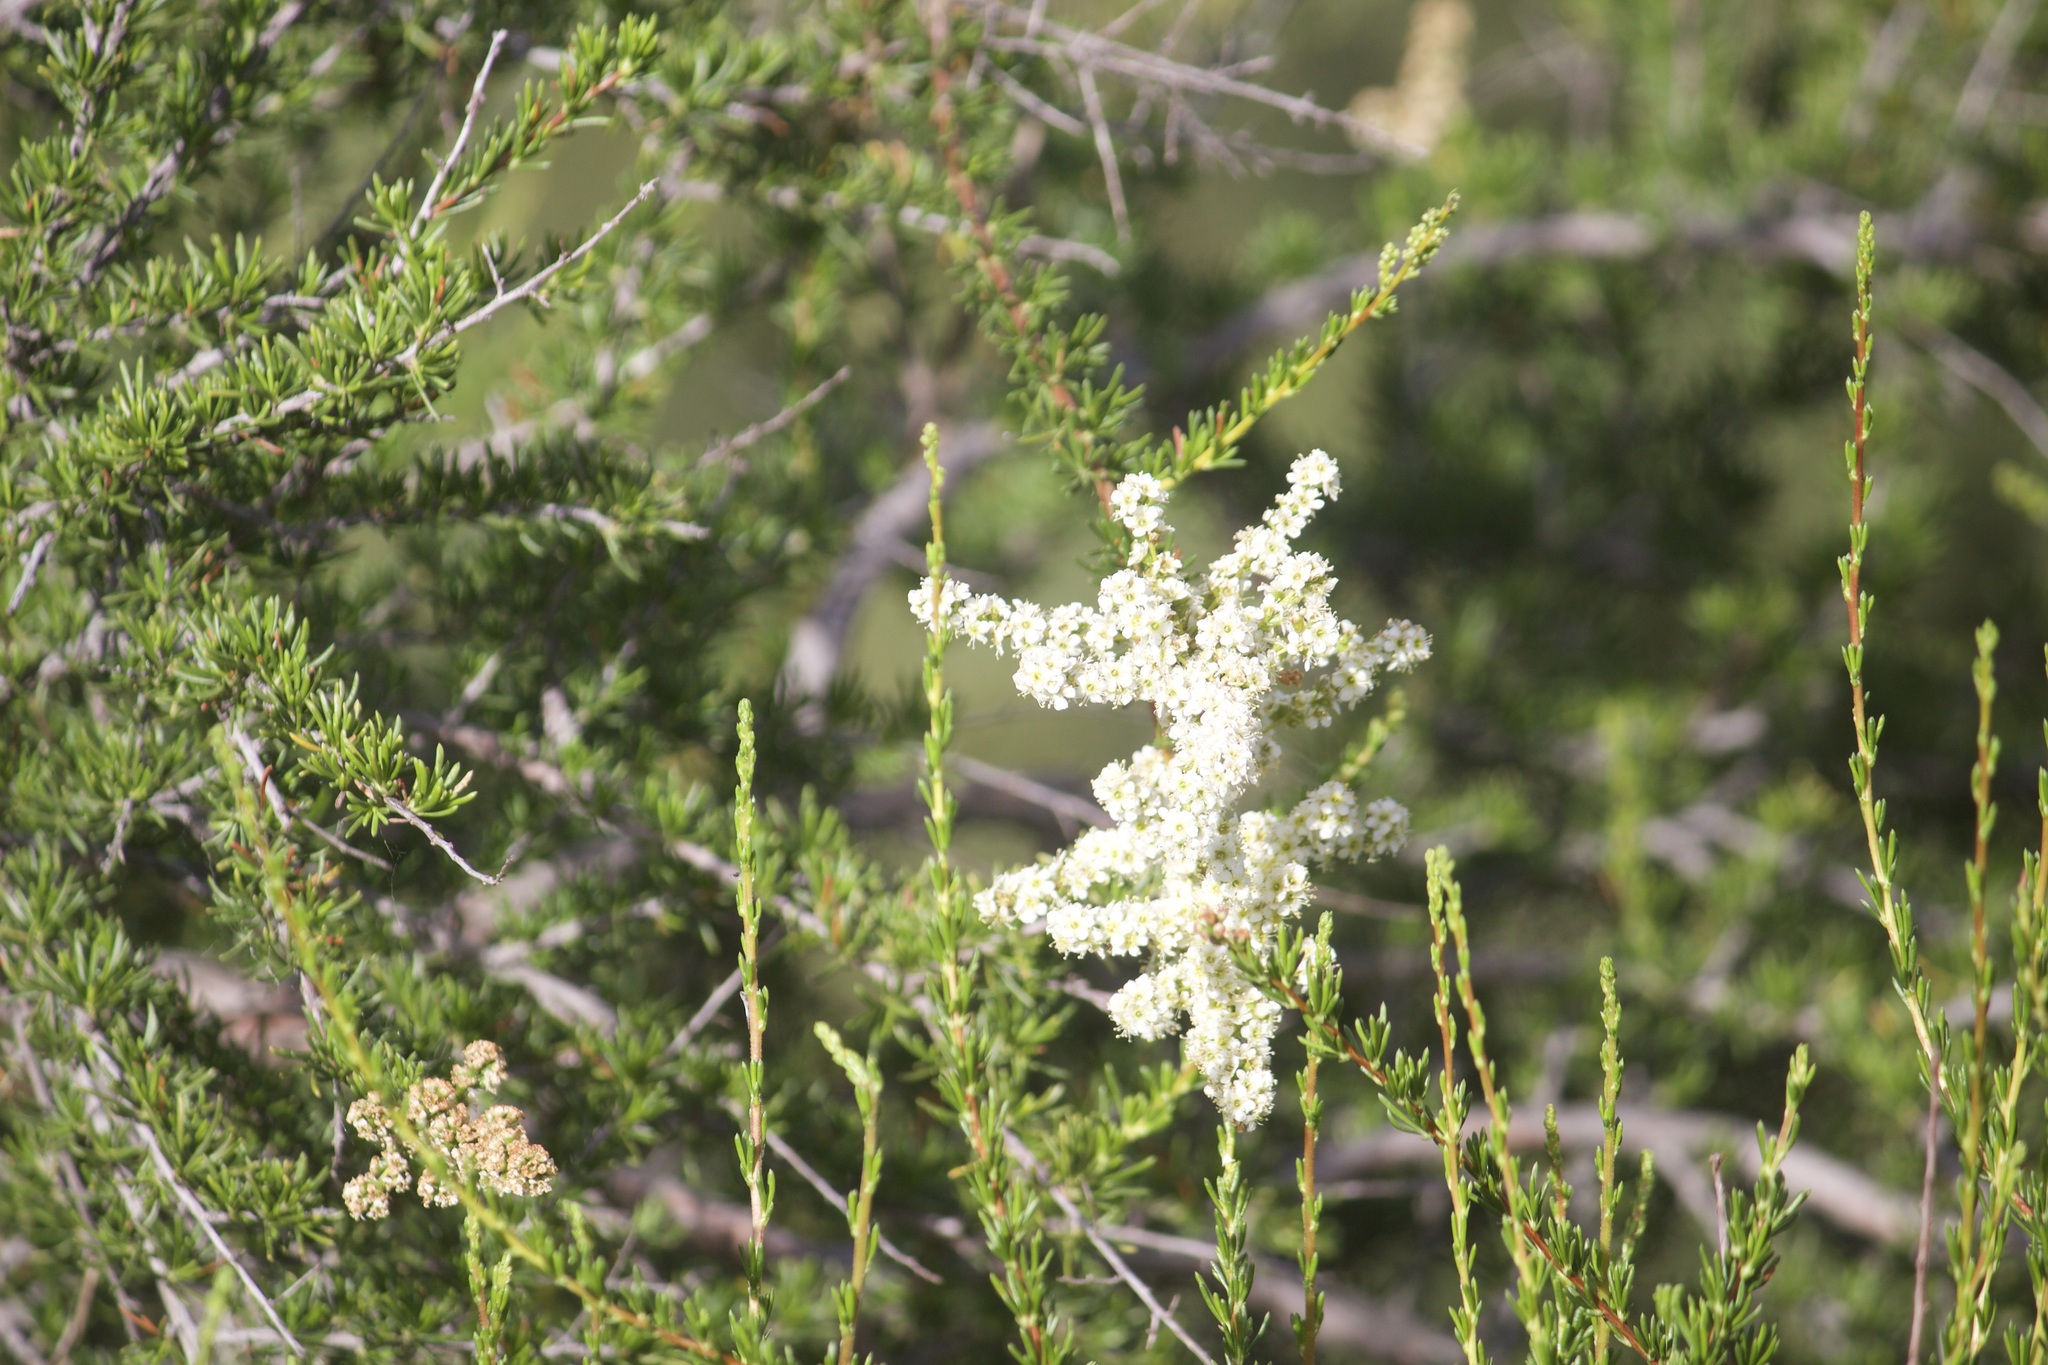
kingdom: Plantae
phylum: Tracheophyta
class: Magnoliopsida
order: Rosales
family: Rosaceae
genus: Adenostoma
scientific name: Adenostoma fasciculatum
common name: Chamise
